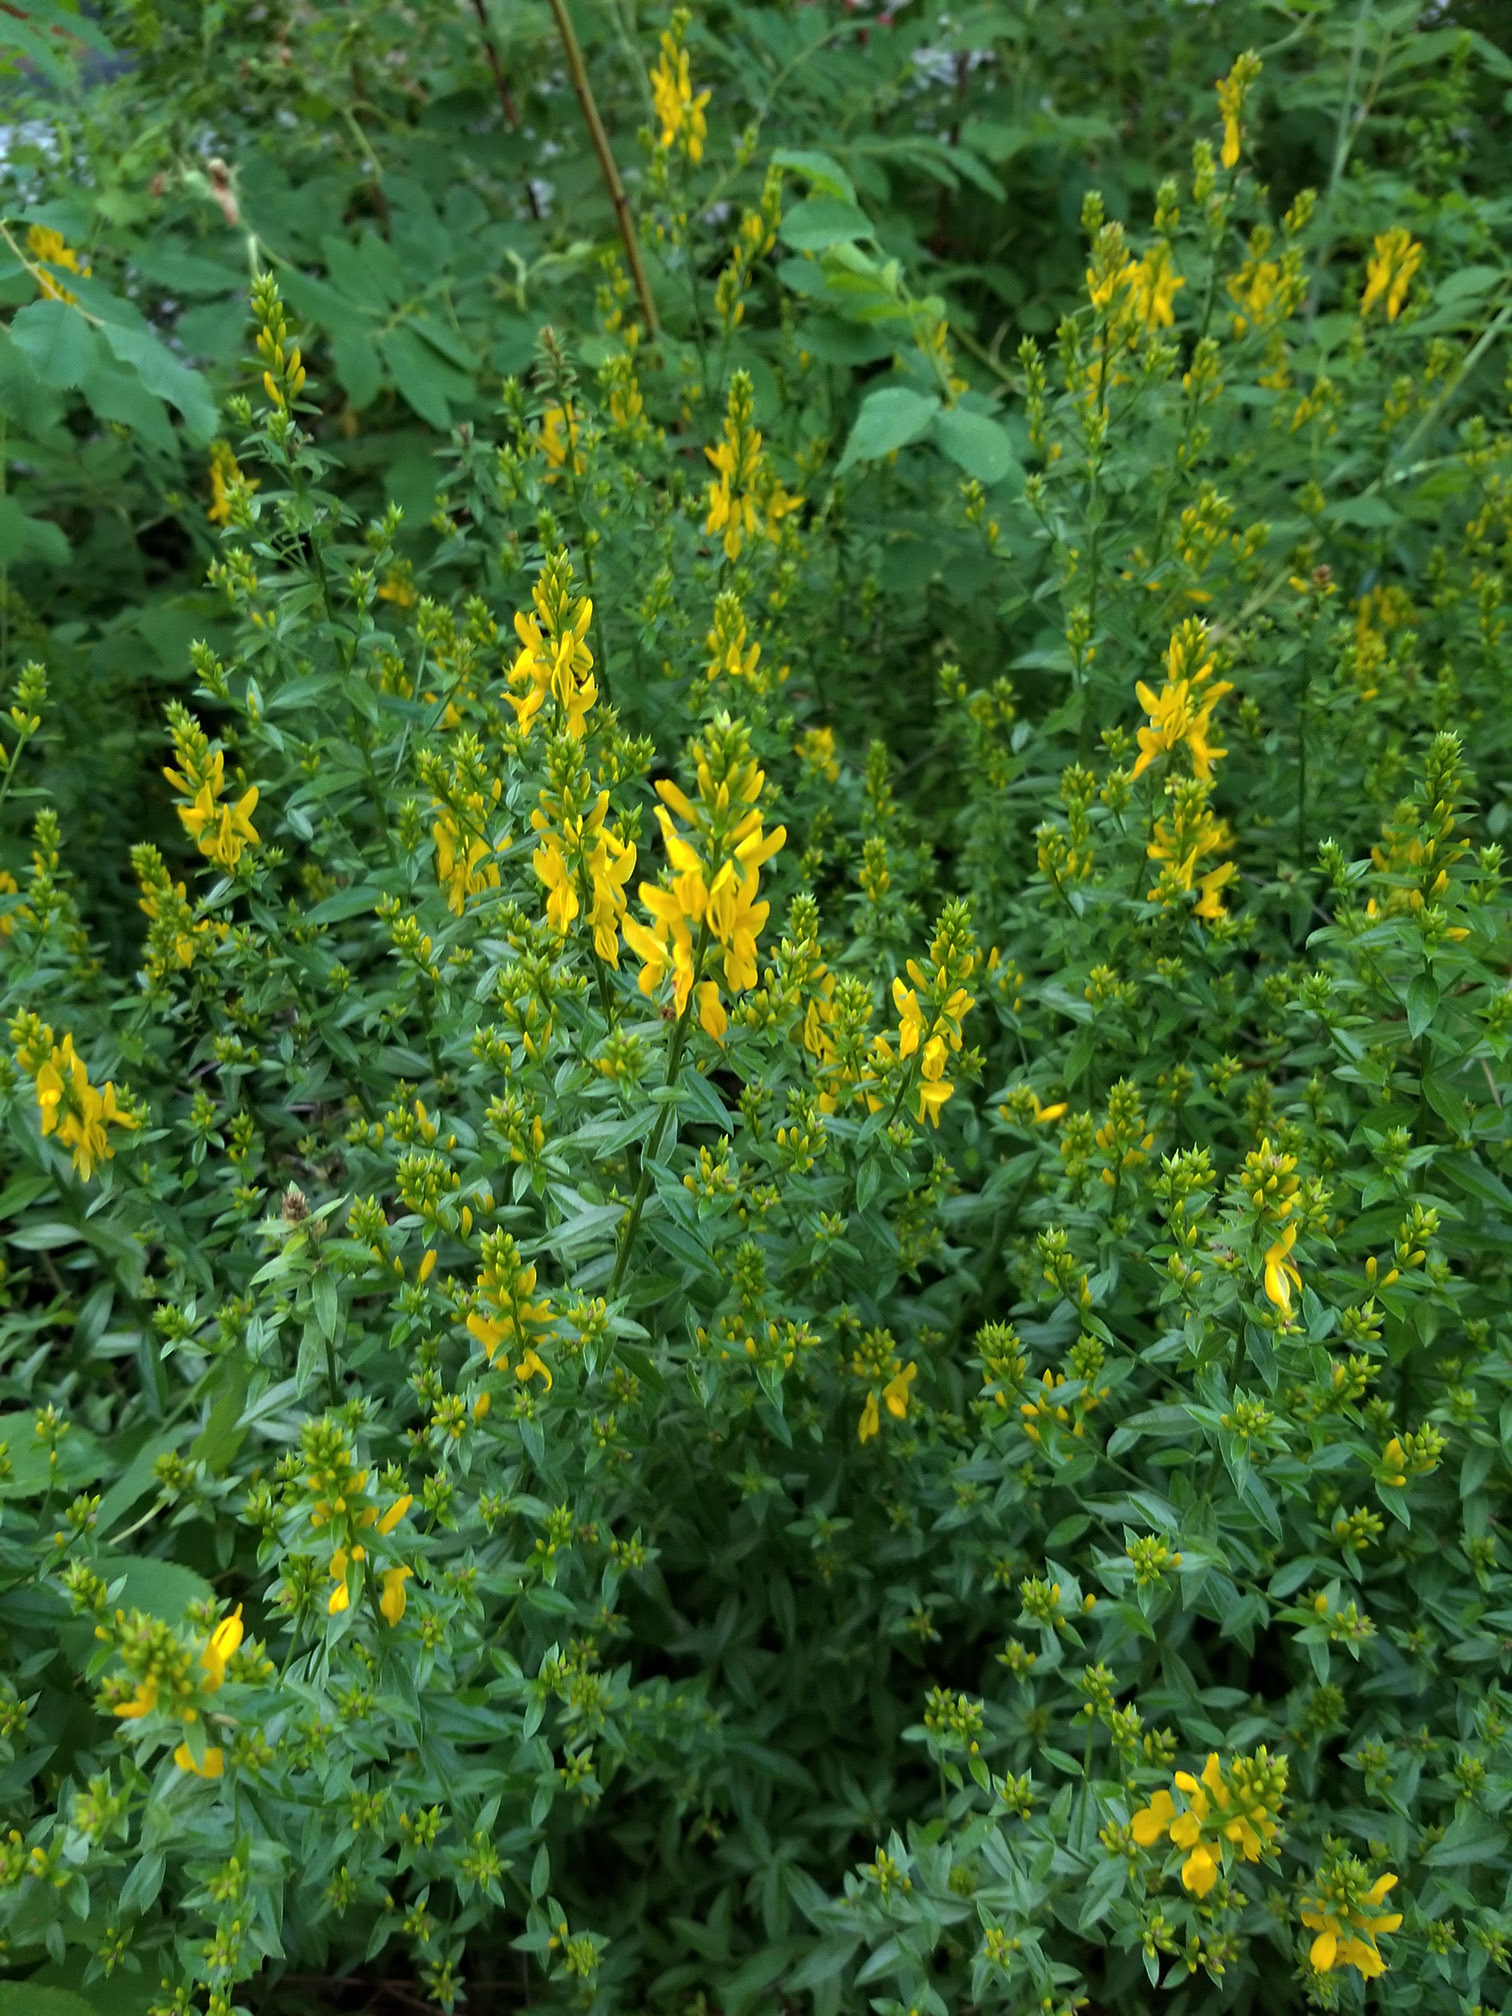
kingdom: Plantae
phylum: Tracheophyta
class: Magnoliopsida
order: Fabales
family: Fabaceae
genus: Genista
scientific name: Genista tinctoria
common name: Dyer's greenweed
